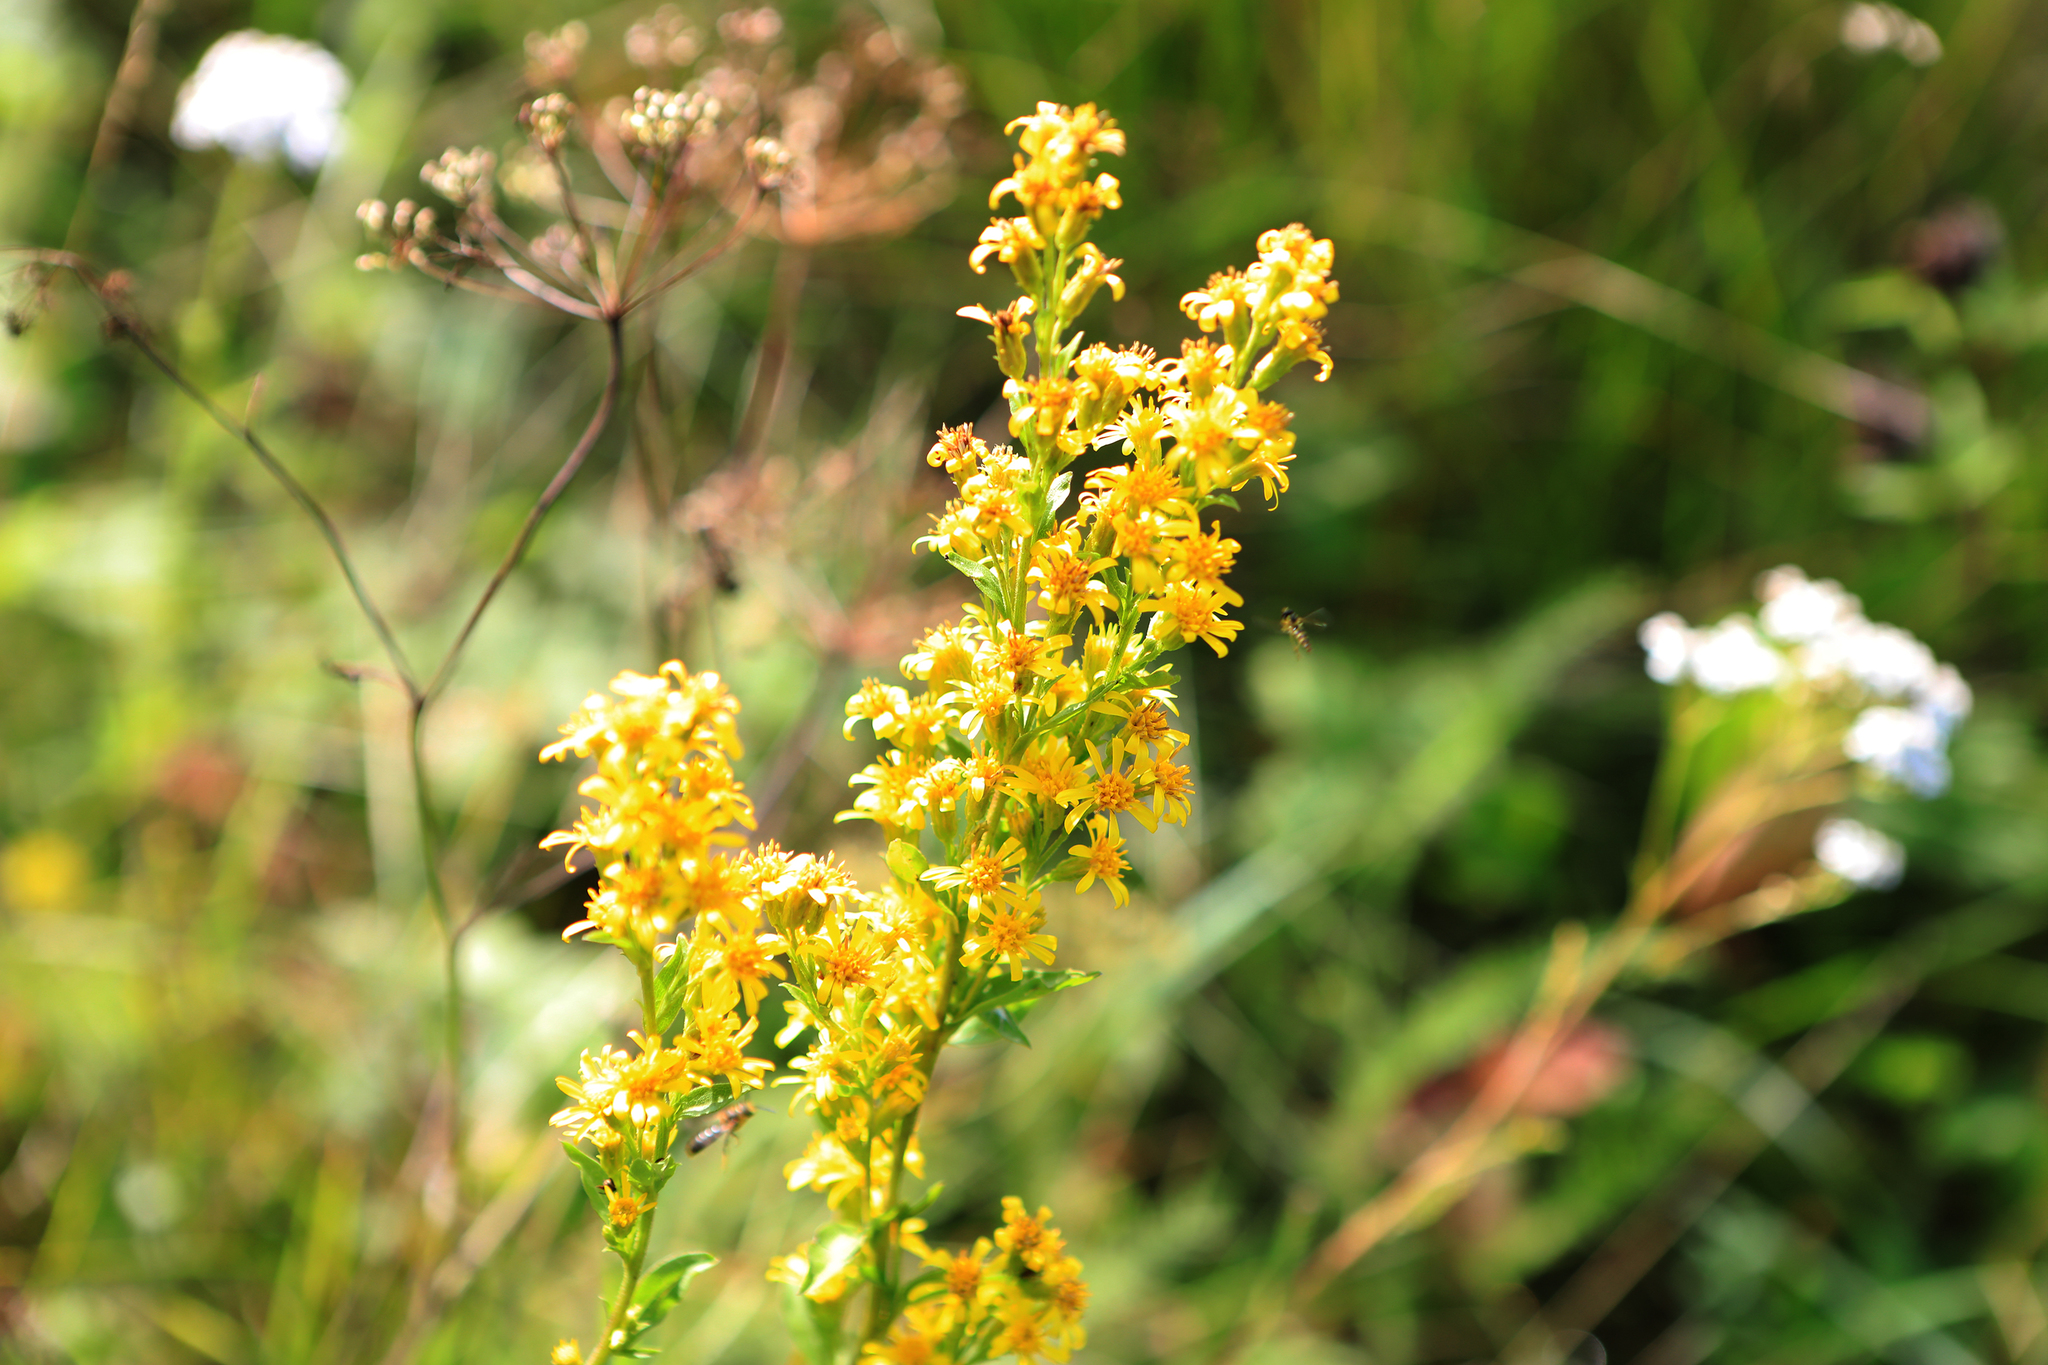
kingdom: Plantae
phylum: Tracheophyta
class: Magnoliopsida
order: Asterales
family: Asteraceae
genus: Solidago
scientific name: Solidago virgaurea
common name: Goldenrod
